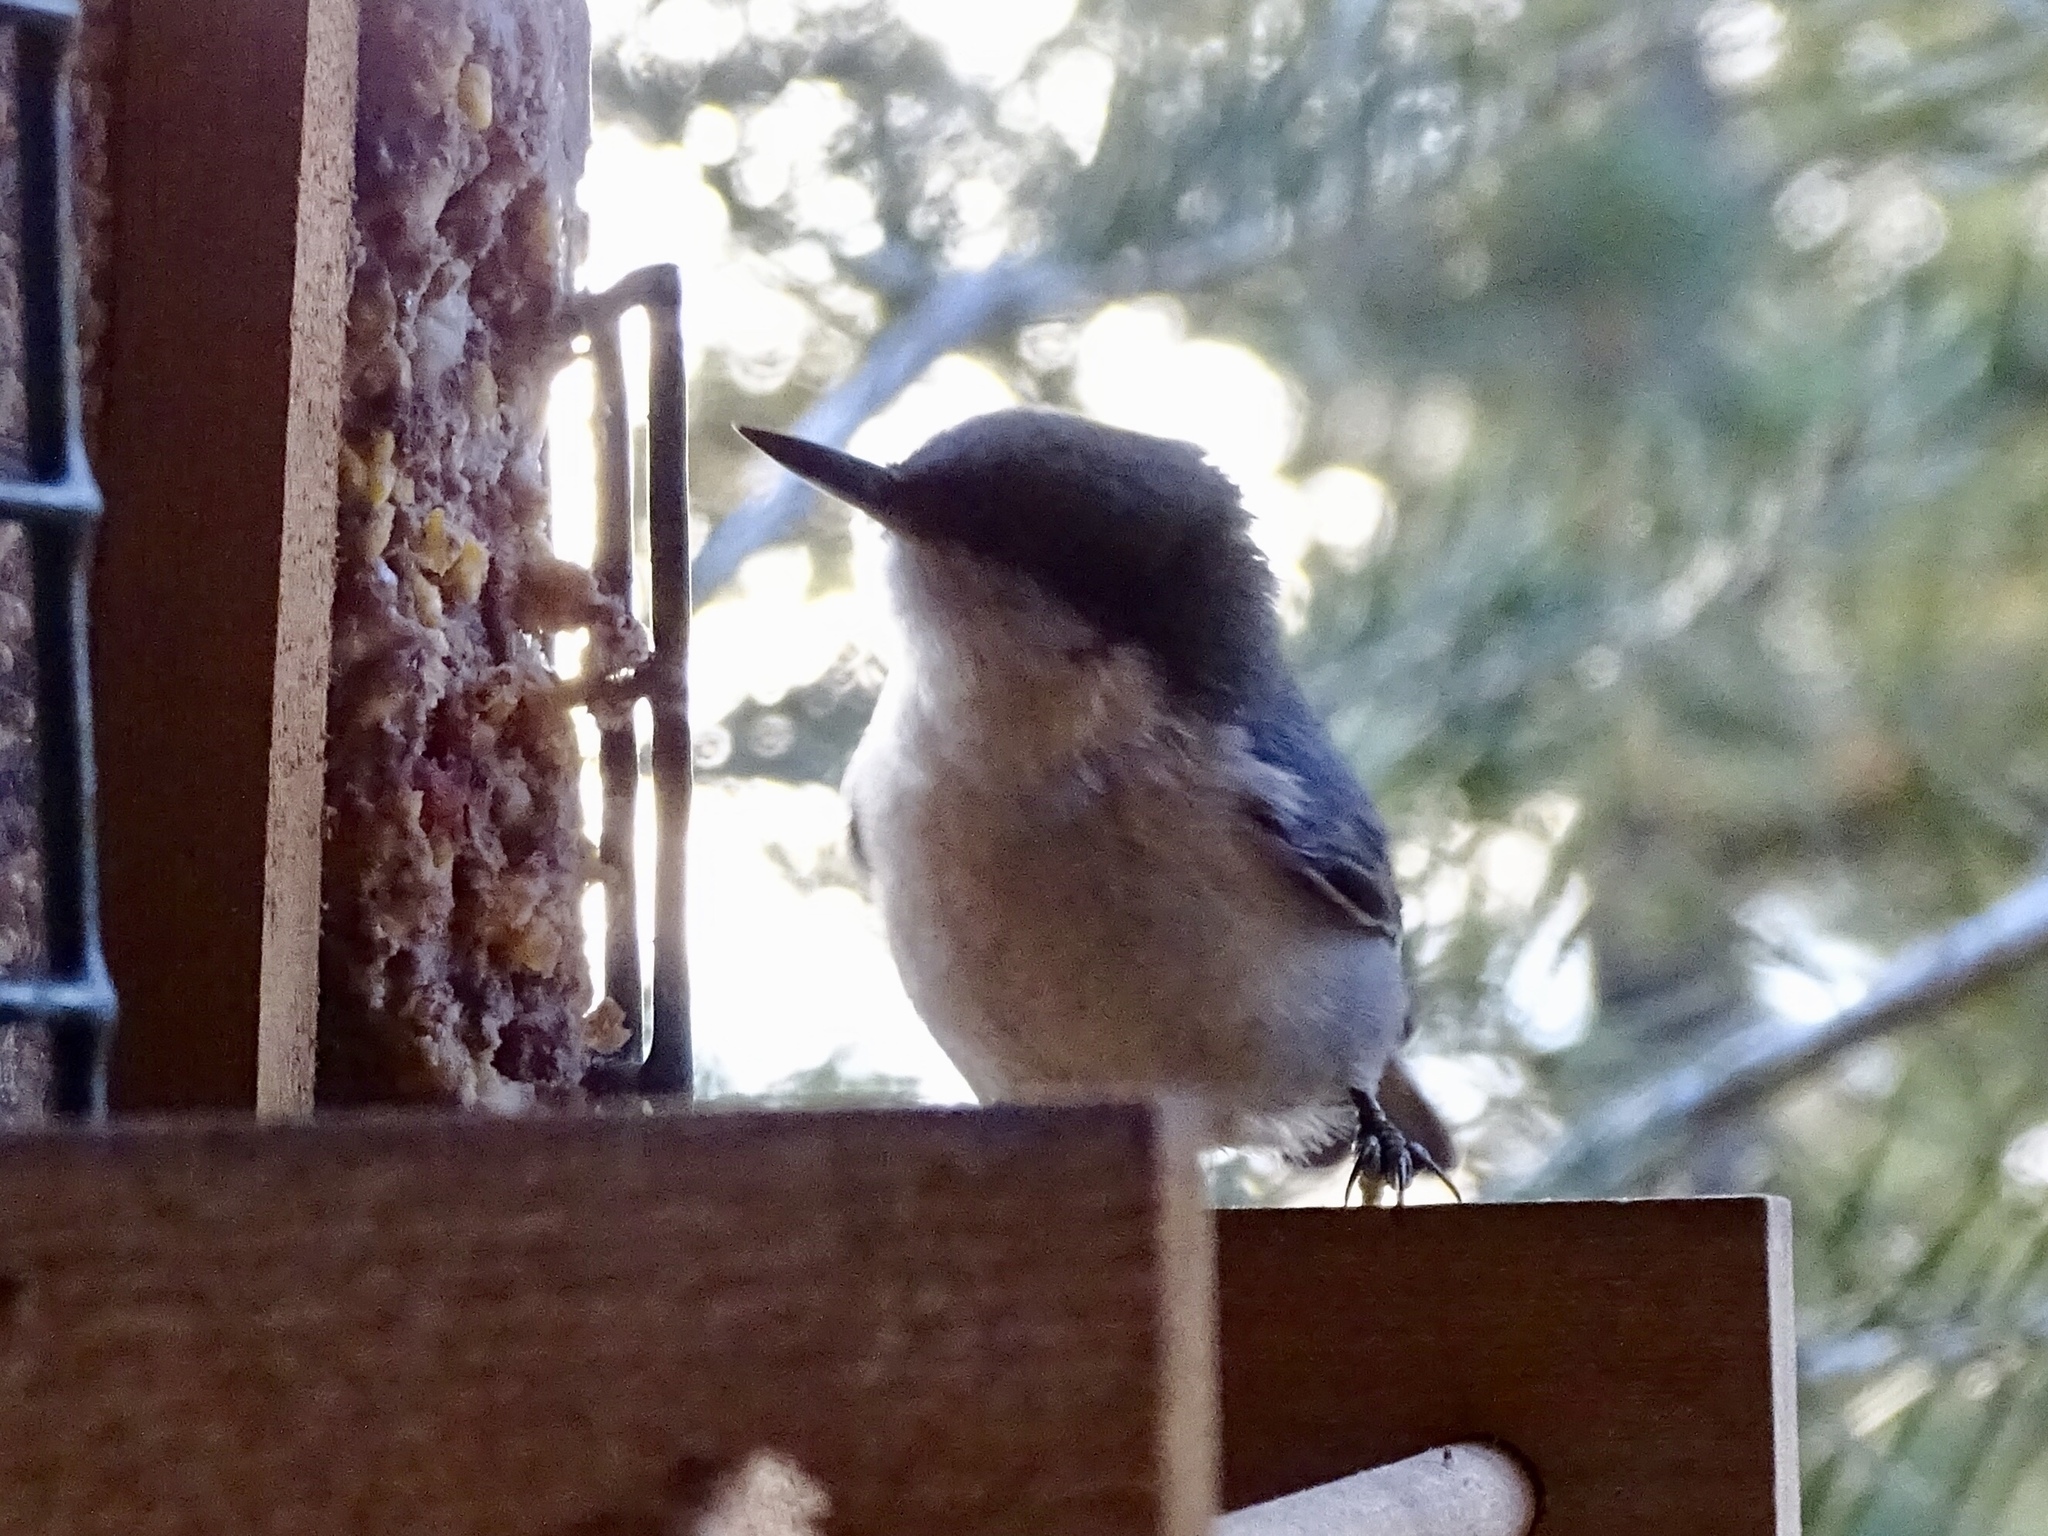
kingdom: Animalia
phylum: Chordata
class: Aves
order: Passeriformes
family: Sittidae
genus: Sitta
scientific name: Sitta pygmaea
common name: Pygmy nuthatch
